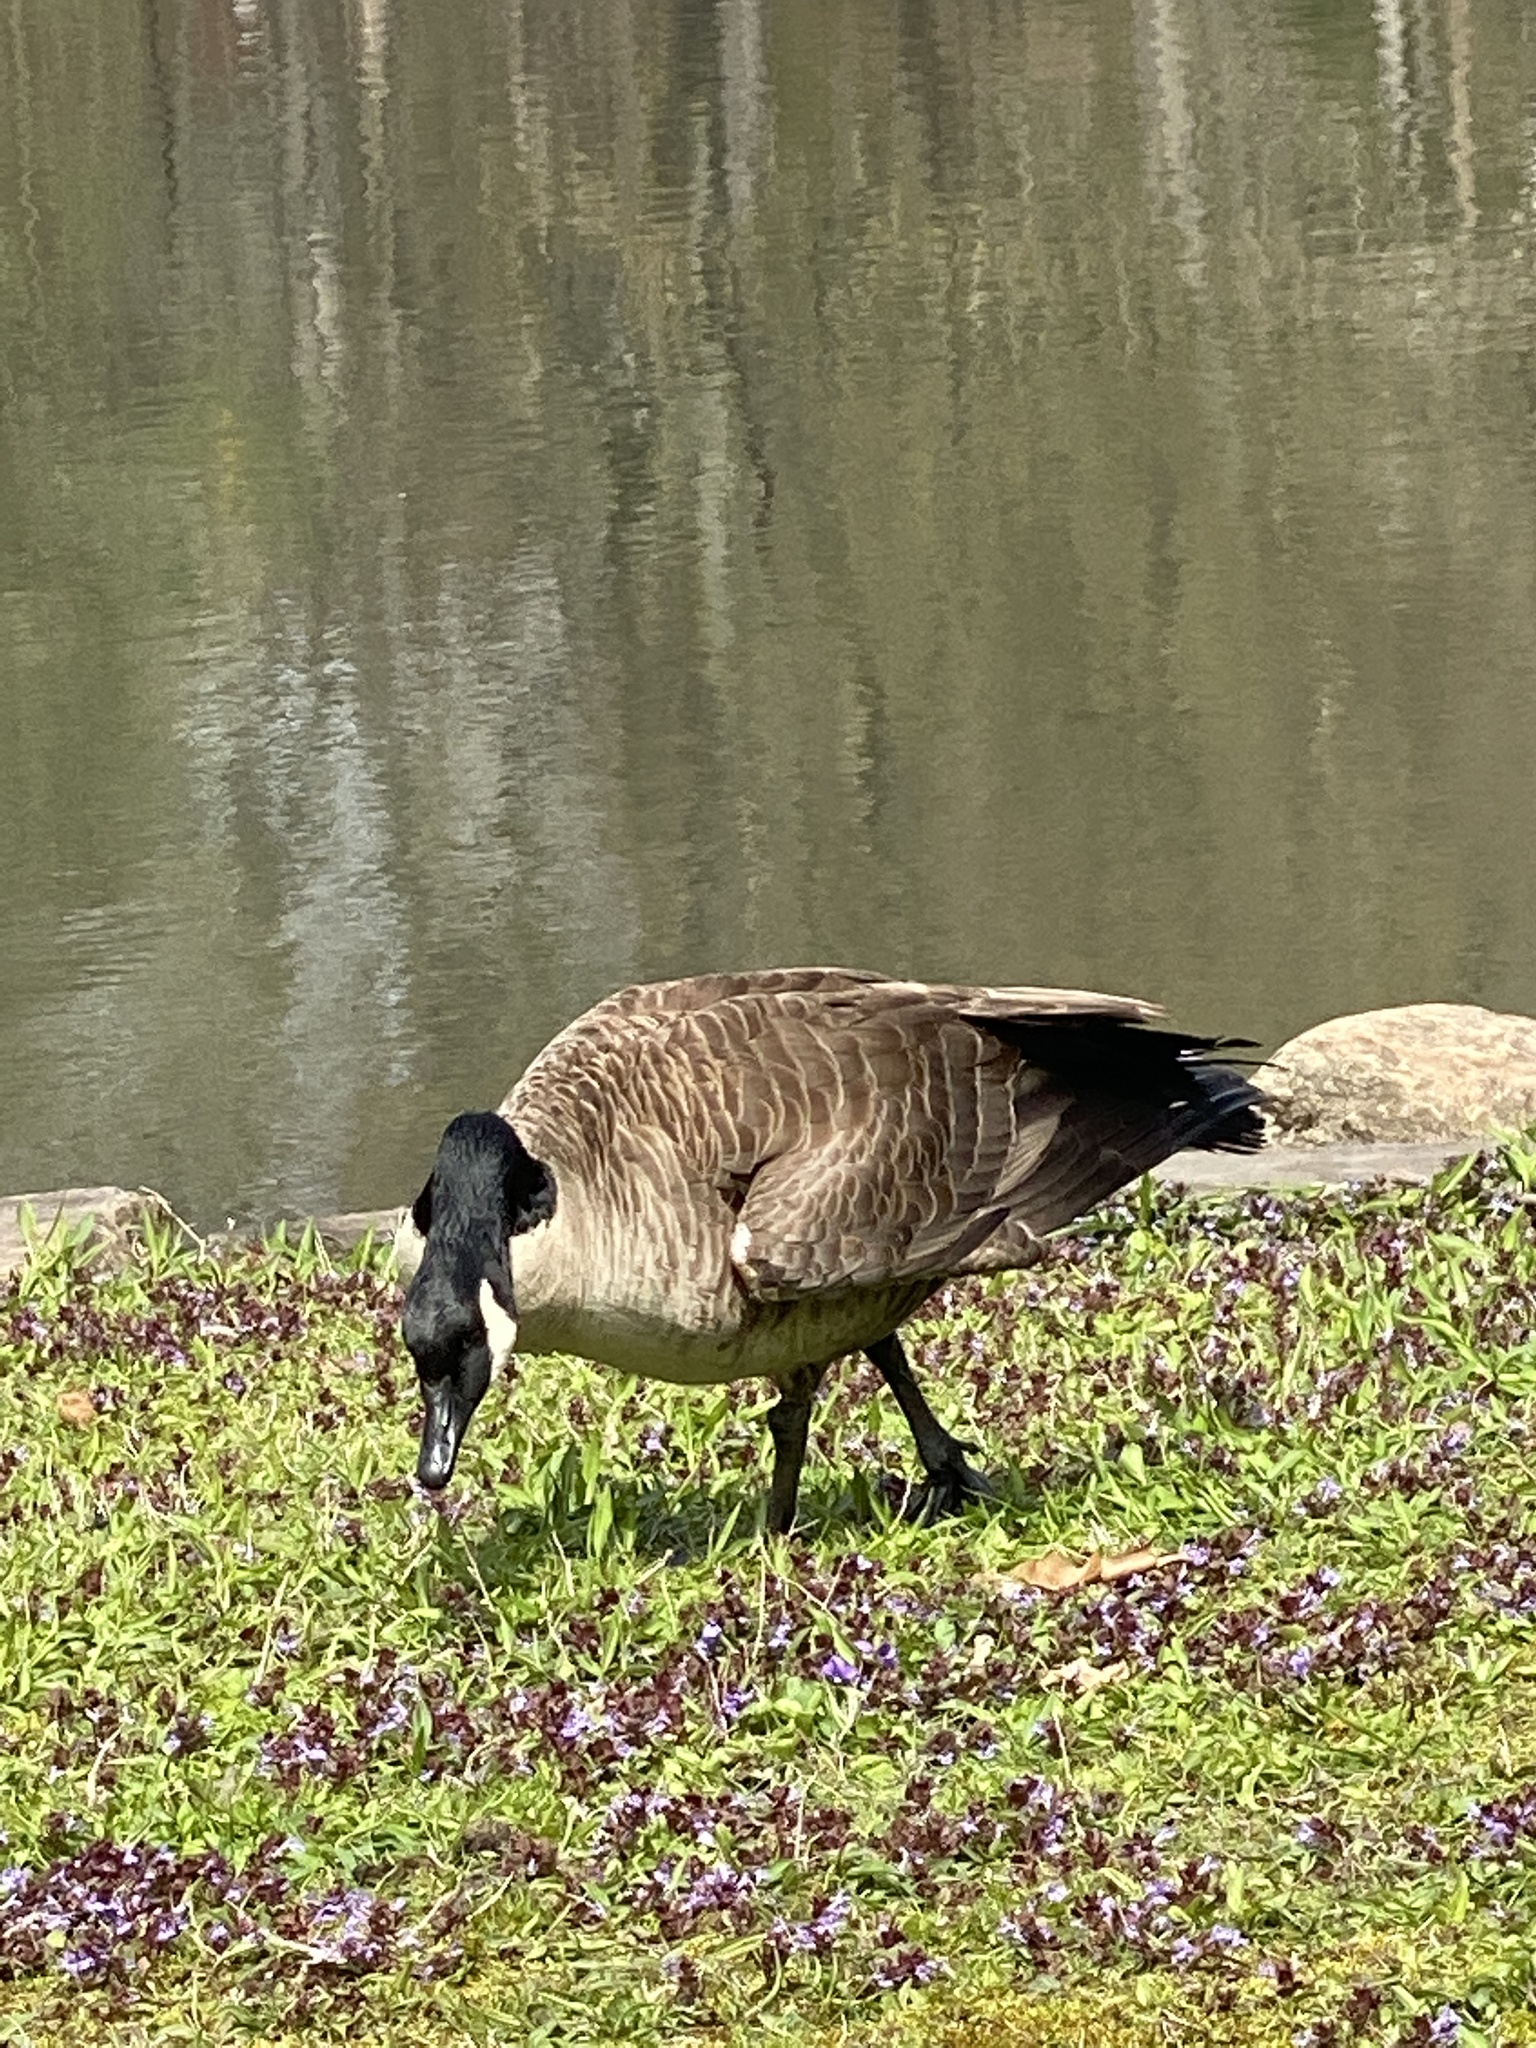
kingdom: Animalia
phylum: Chordata
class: Aves
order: Anseriformes
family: Anatidae
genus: Branta
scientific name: Branta canadensis
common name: Canada goose
